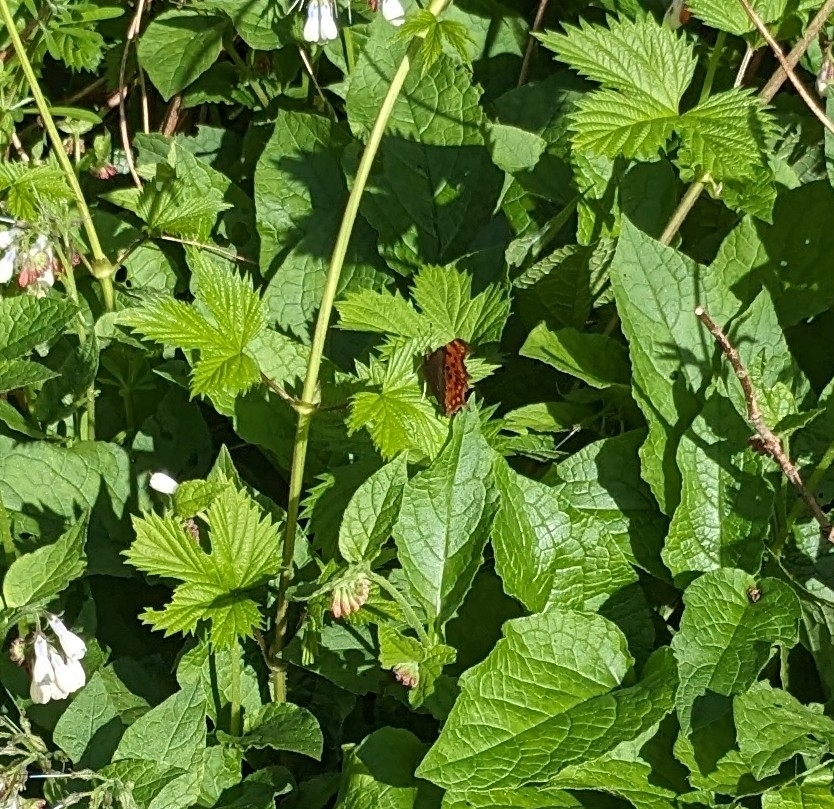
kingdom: Animalia
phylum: Arthropoda
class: Insecta
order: Lepidoptera
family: Nymphalidae
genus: Polygonia
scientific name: Polygonia c-album
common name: Comma
